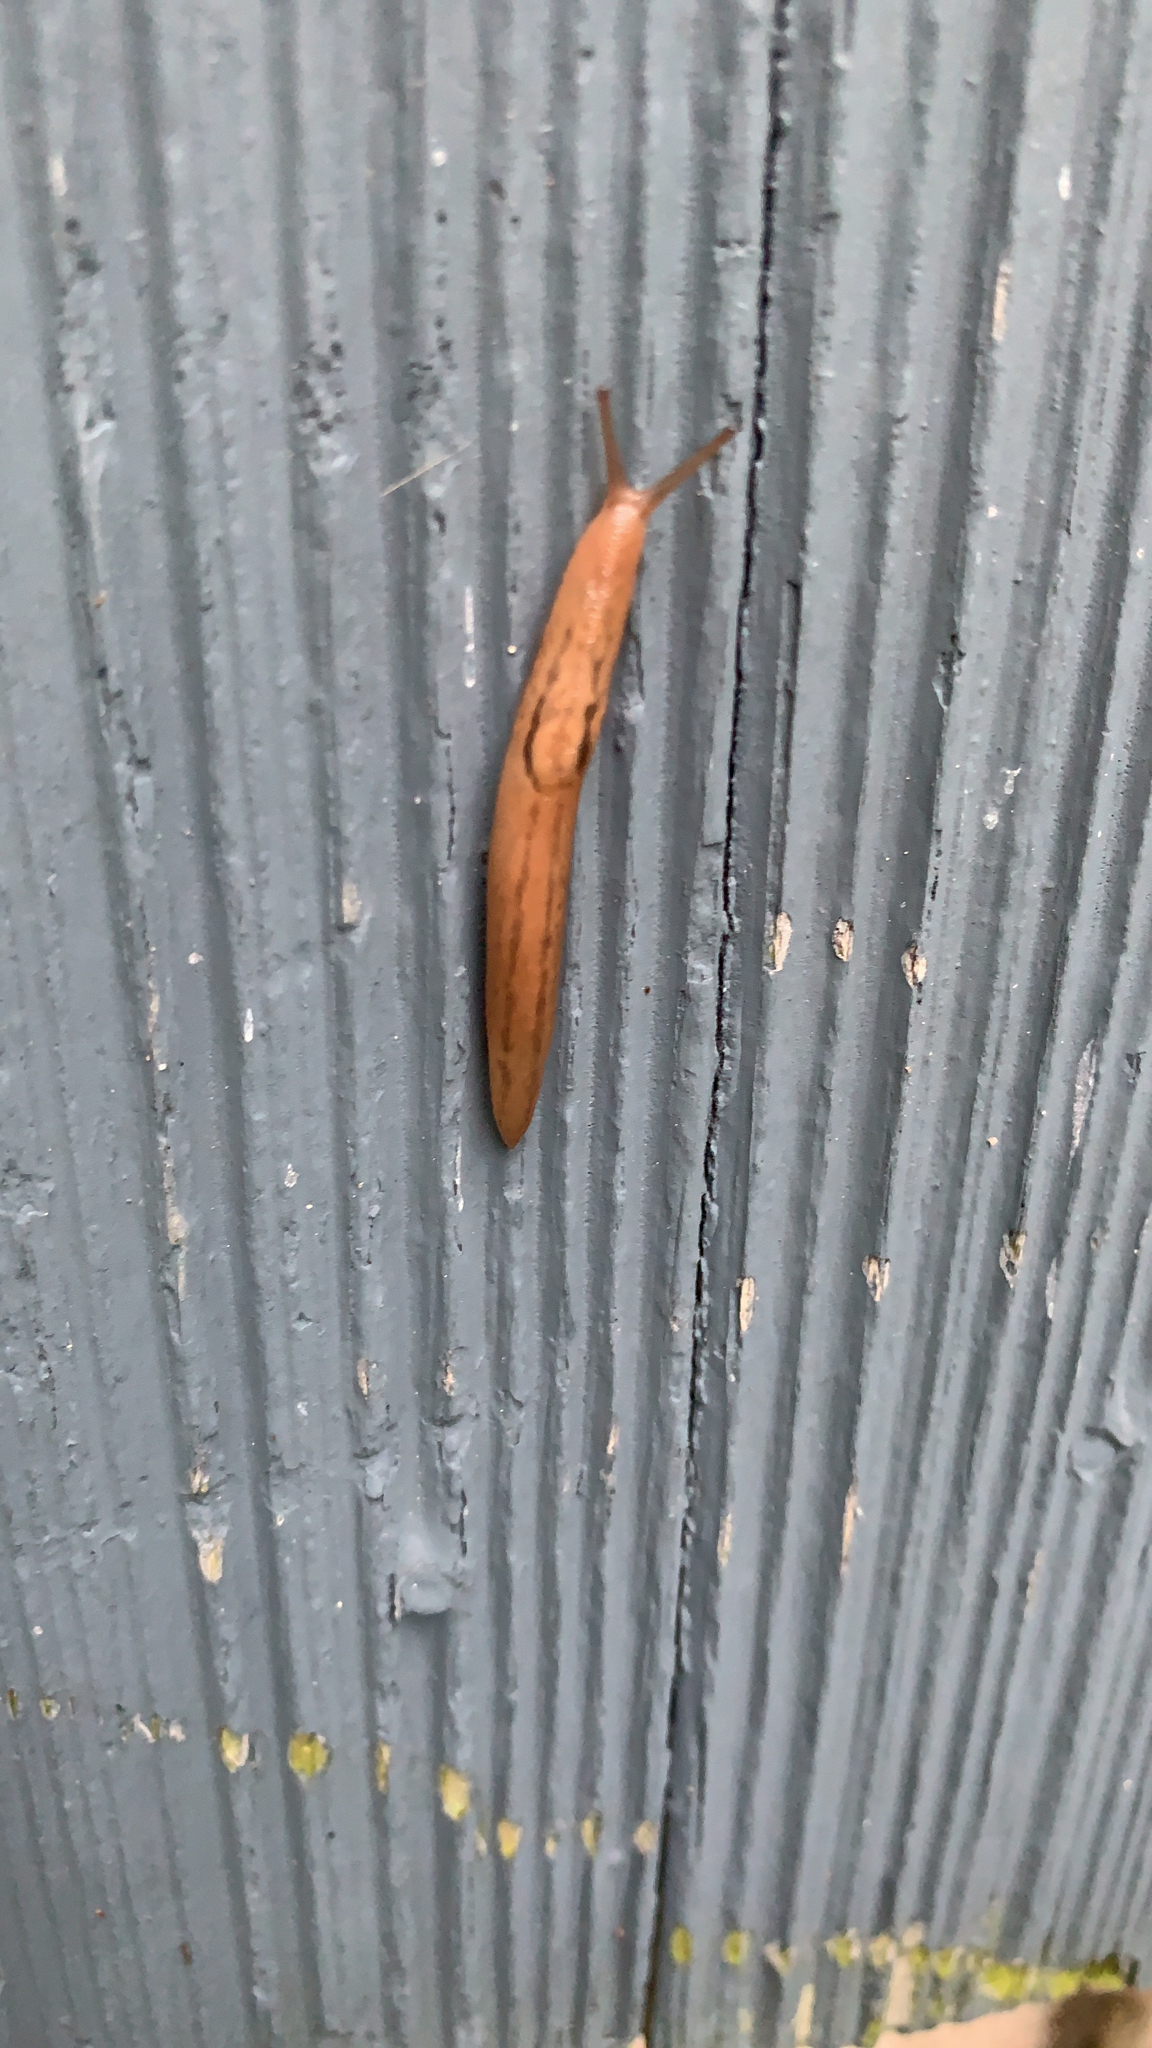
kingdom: Animalia
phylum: Mollusca
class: Gastropoda
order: Stylommatophora
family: Limacidae
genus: Ambigolimax
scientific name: Ambigolimax
